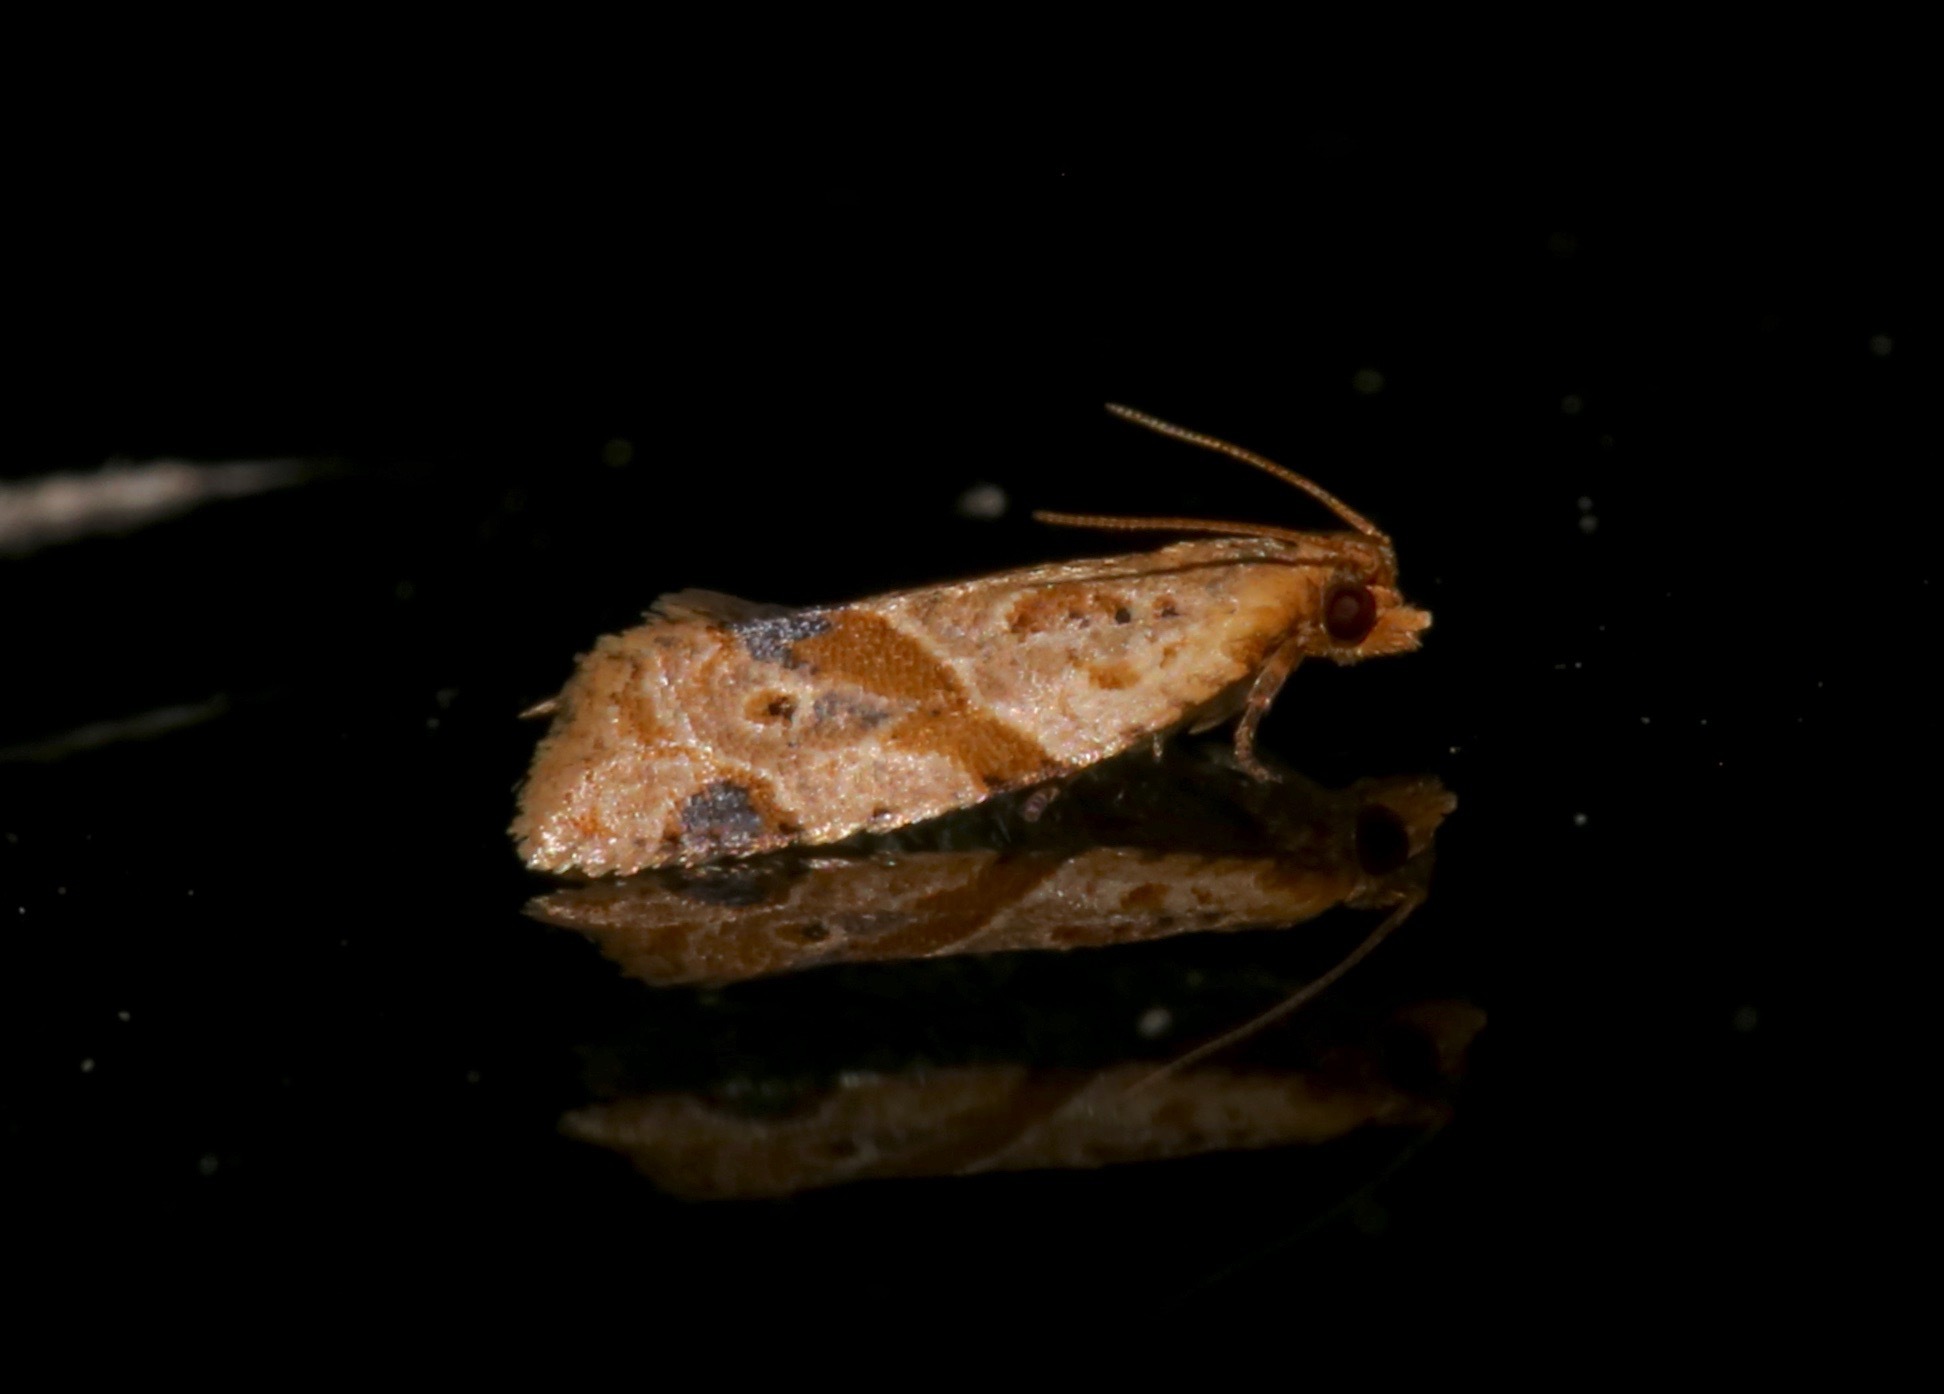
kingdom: Animalia
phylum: Arthropoda
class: Insecta
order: Lepidoptera
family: Tortricidae
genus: Clepsis
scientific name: Clepsis peritana
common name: Garden tortrix
